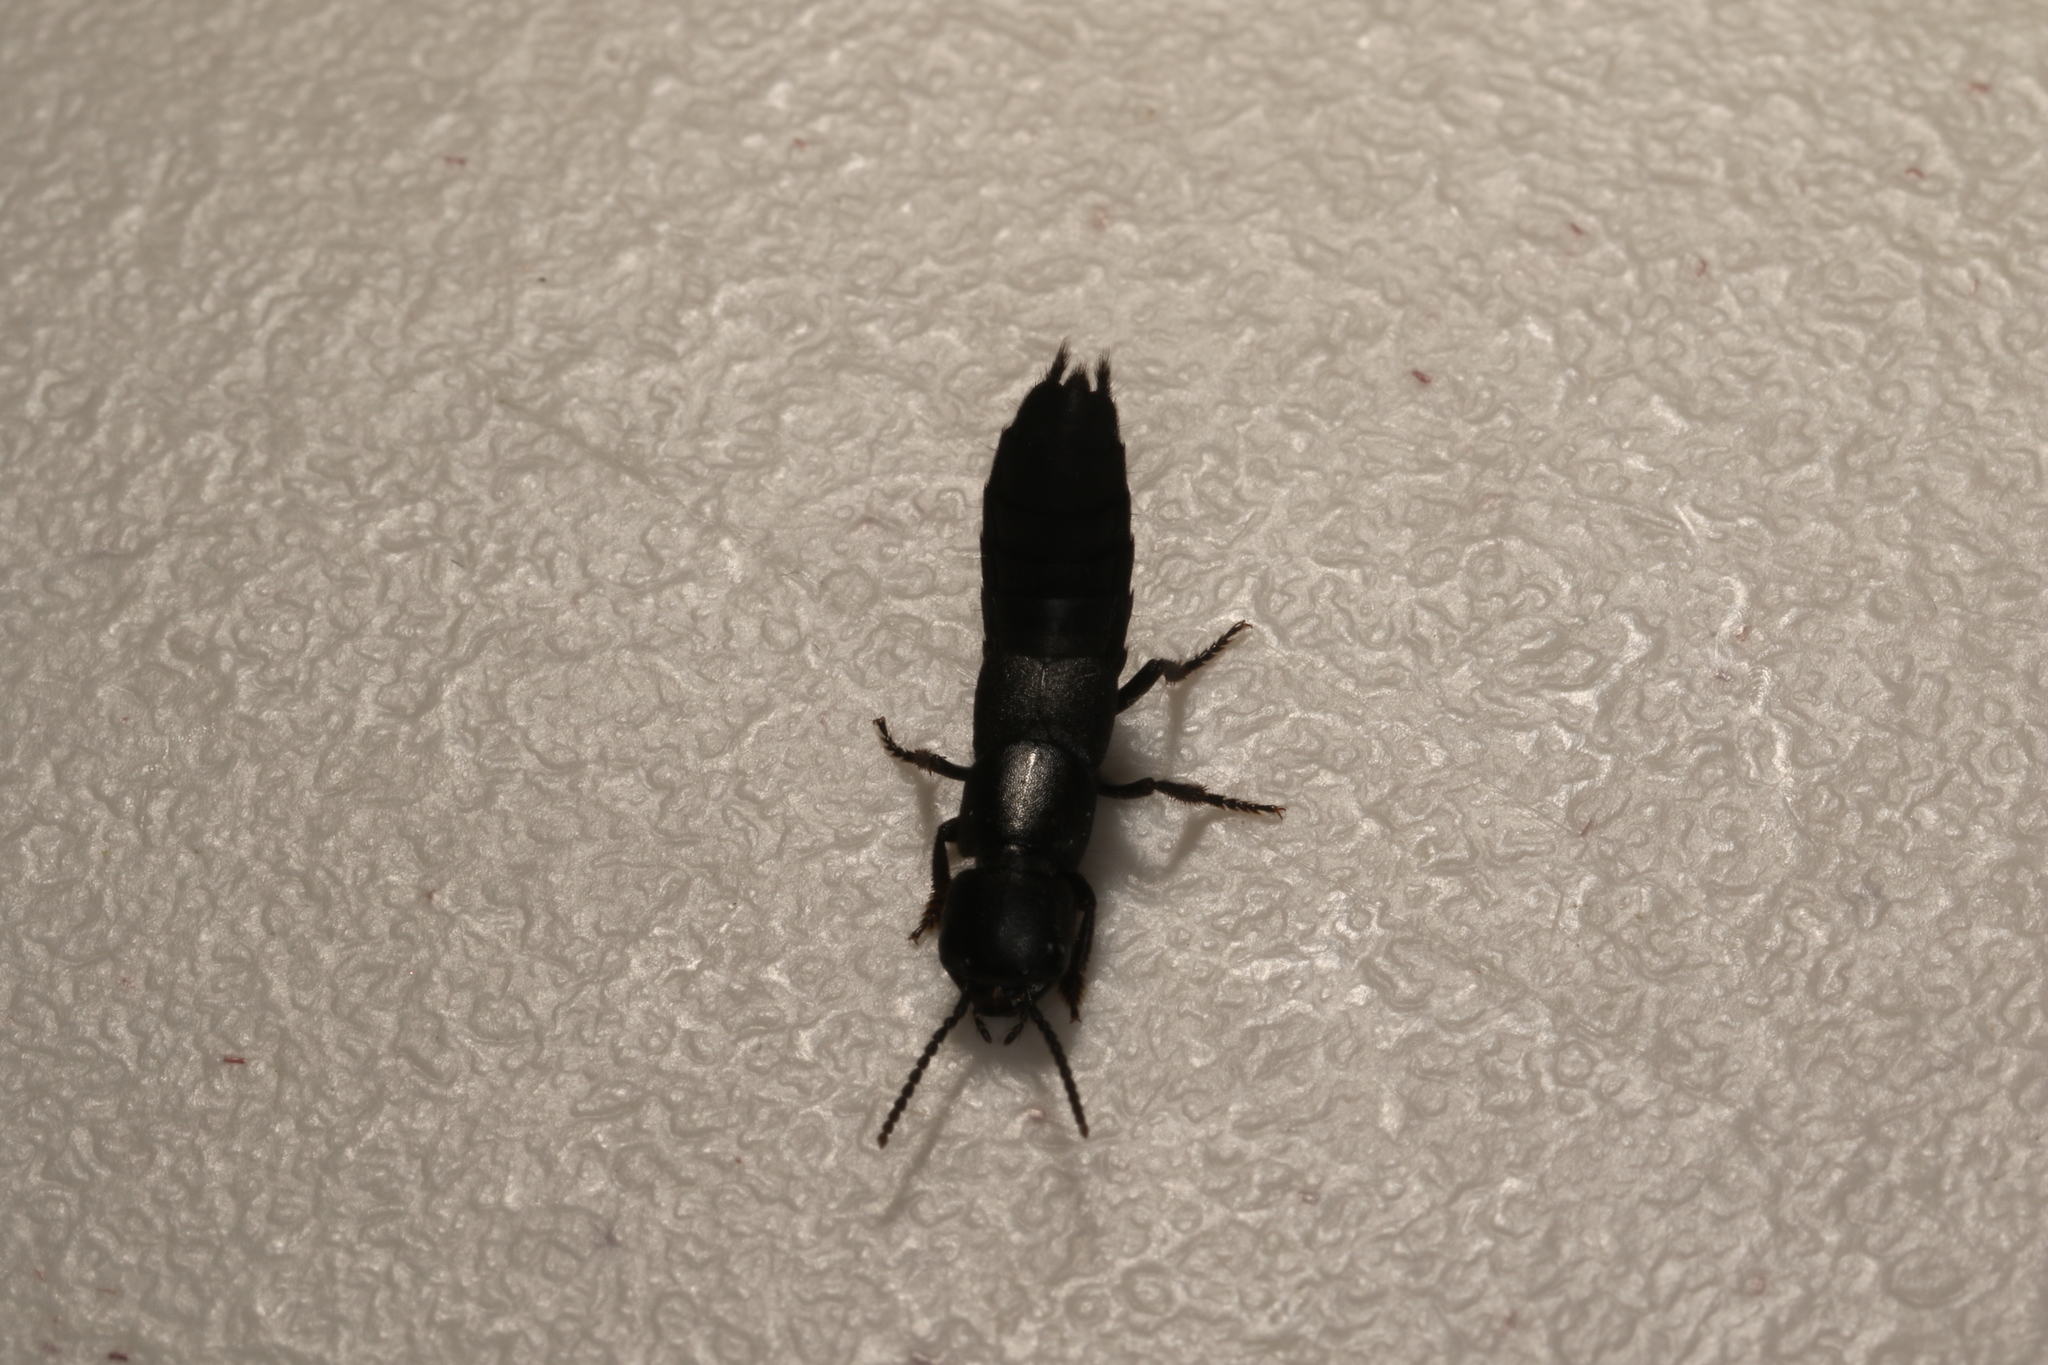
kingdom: Animalia
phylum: Arthropoda
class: Insecta
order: Coleoptera
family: Staphylinidae
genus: Ocypus
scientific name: Ocypus nitens
